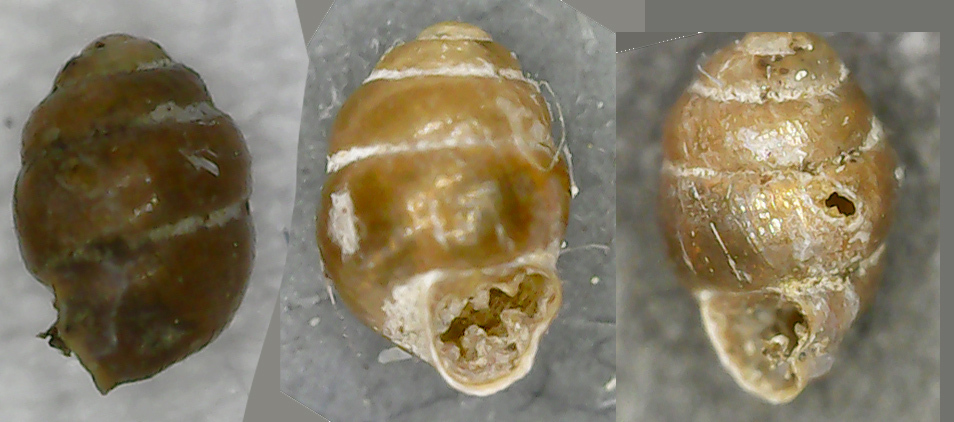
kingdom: Animalia
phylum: Mollusca
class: Gastropoda
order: Stylommatophora
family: Vertiginidae
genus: Vertigo
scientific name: Vertigo antivertigo
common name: Marsh whorl snail
